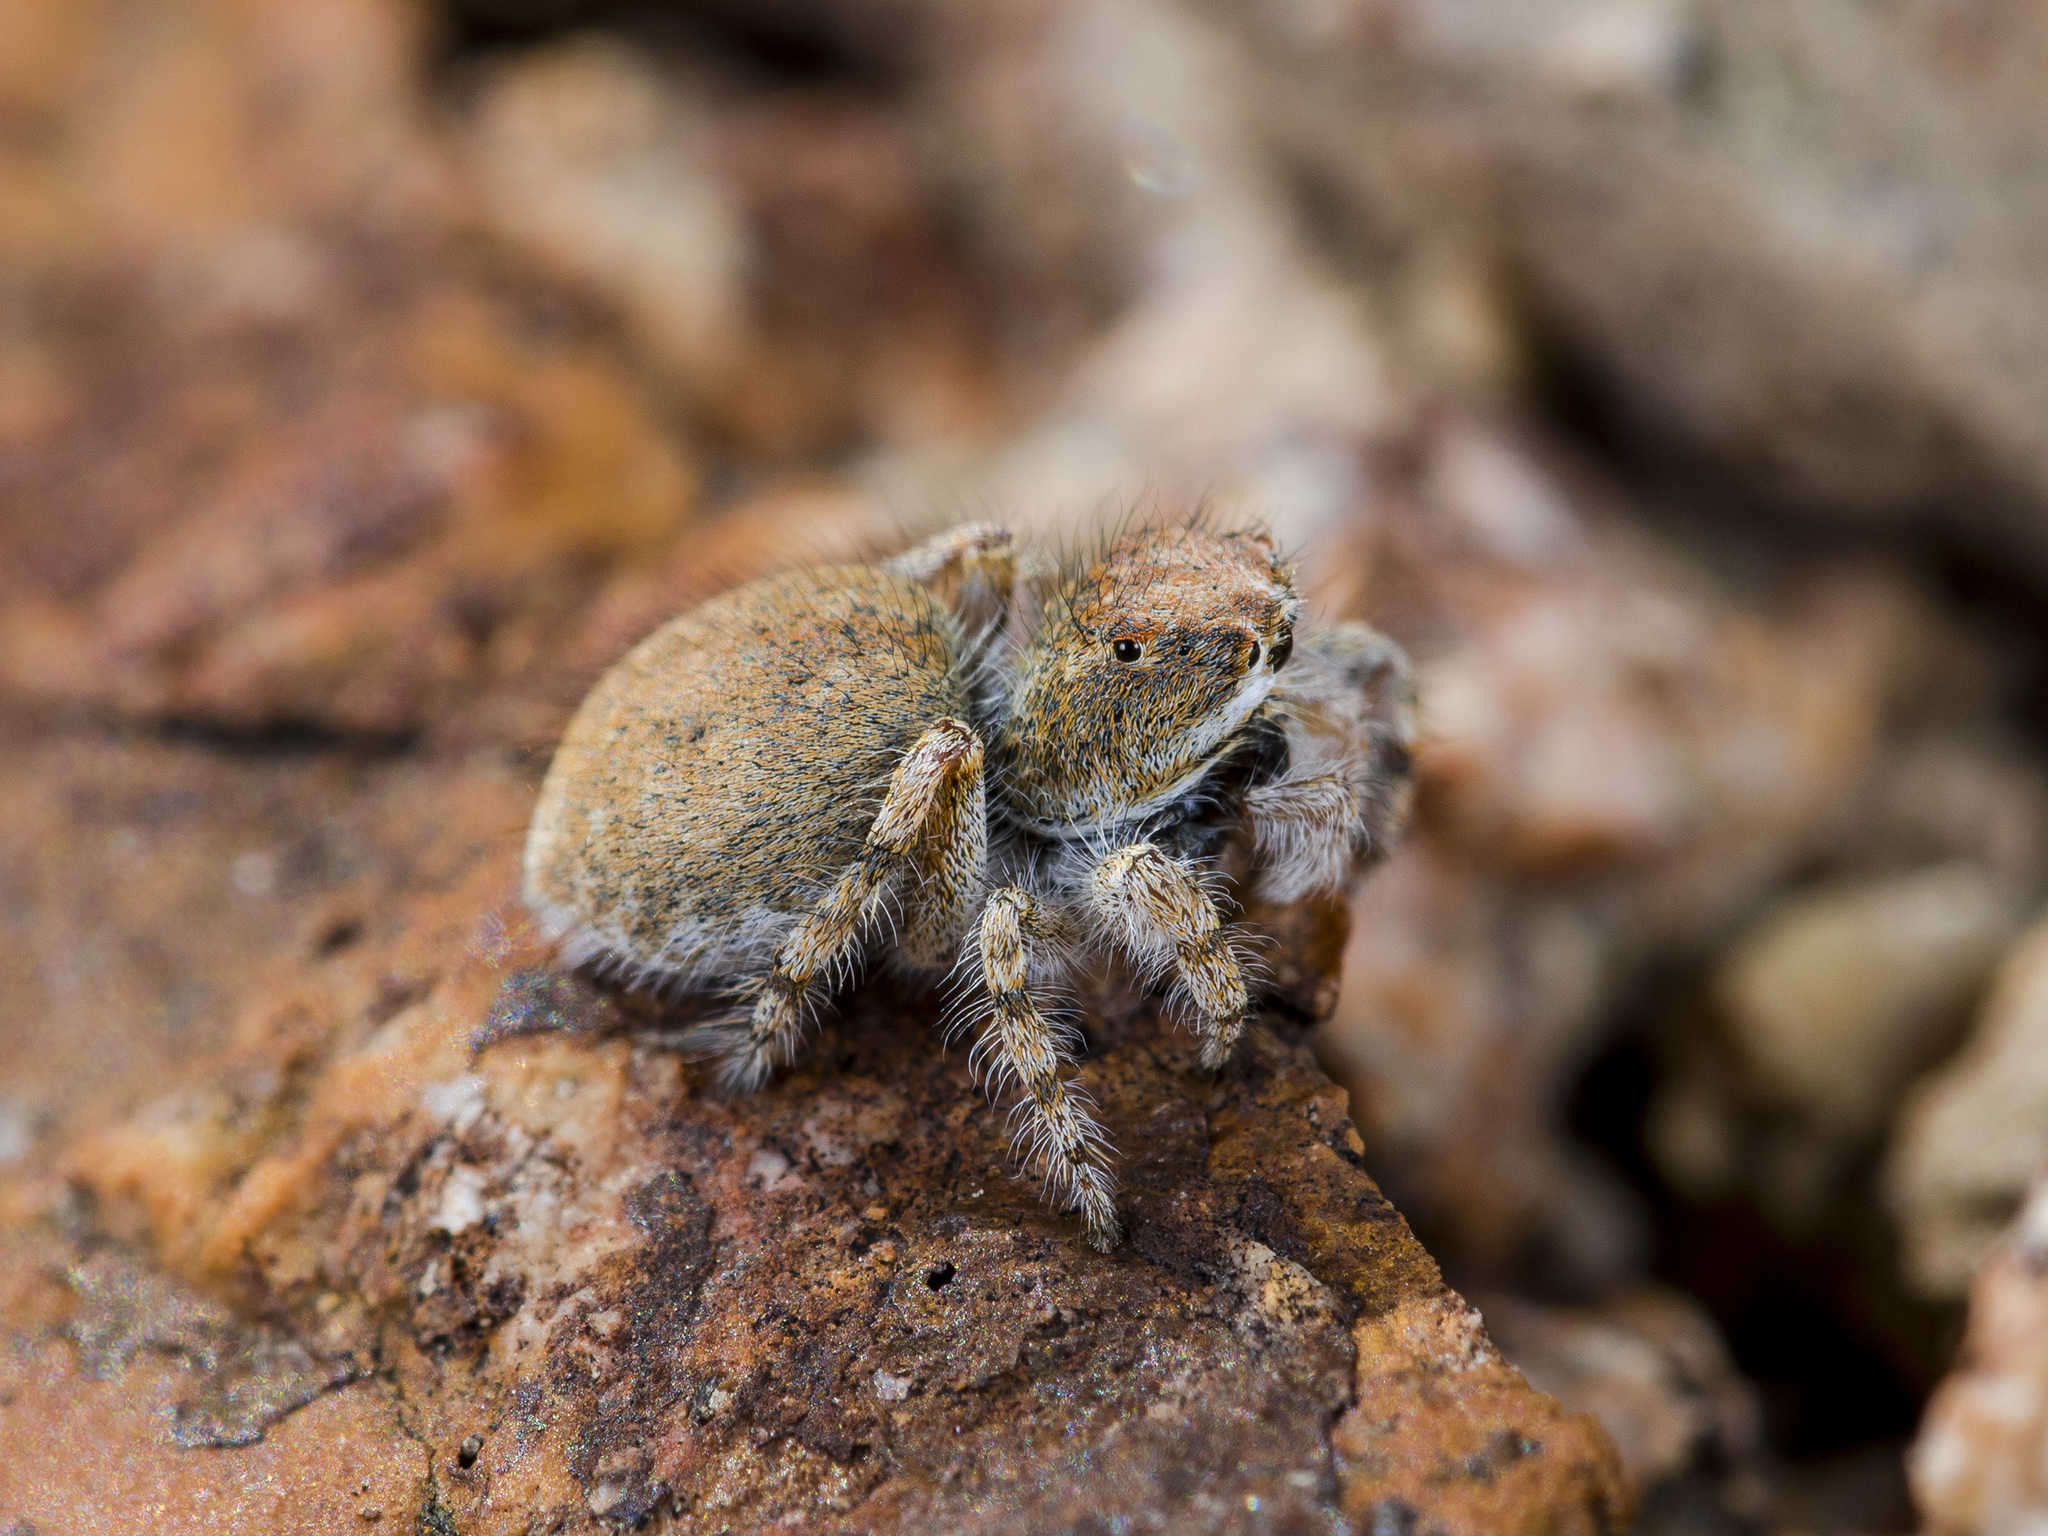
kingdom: Animalia
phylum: Arthropoda
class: Arachnida
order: Araneae
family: Salticidae
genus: Yllenus
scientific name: Yllenus charynensis
